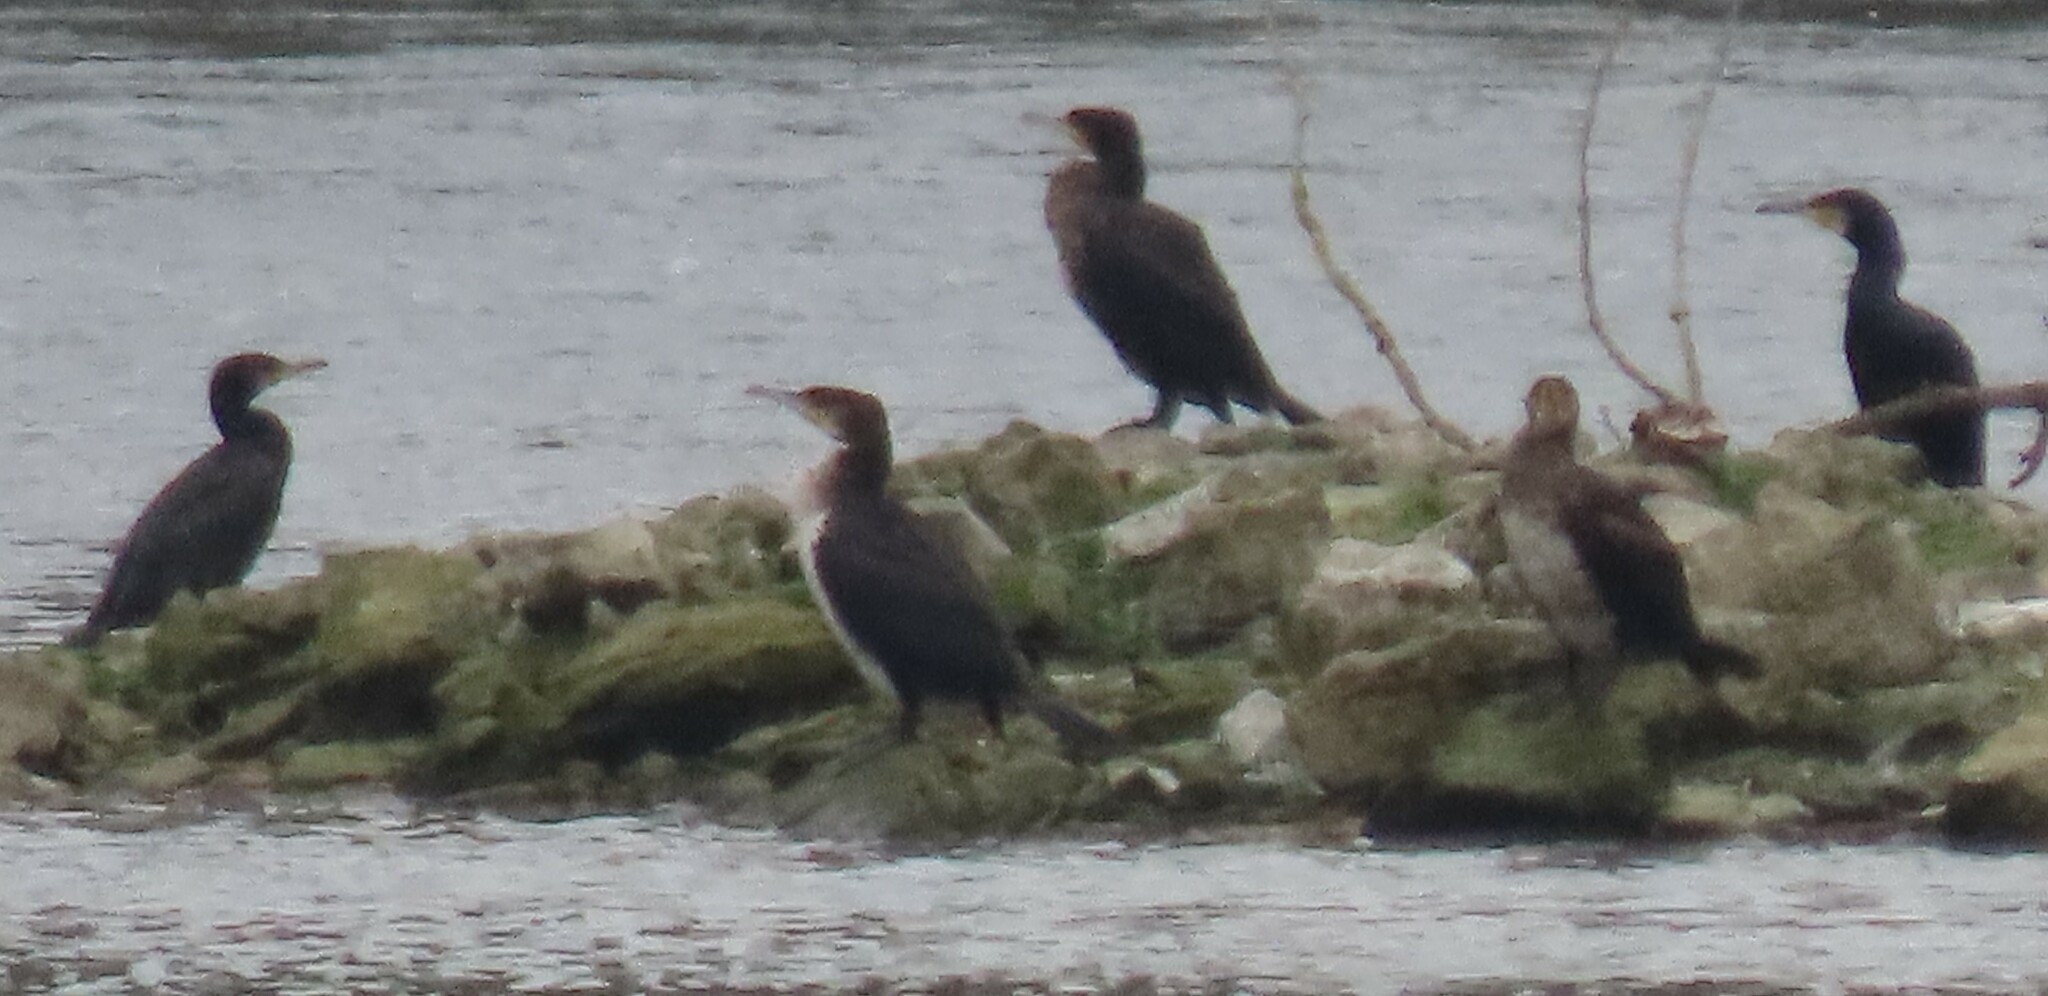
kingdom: Animalia
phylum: Chordata
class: Aves
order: Suliformes
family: Phalacrocoracidae
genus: Phalacrocorax
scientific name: Phalacrocorax carbo
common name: Great cormorant
